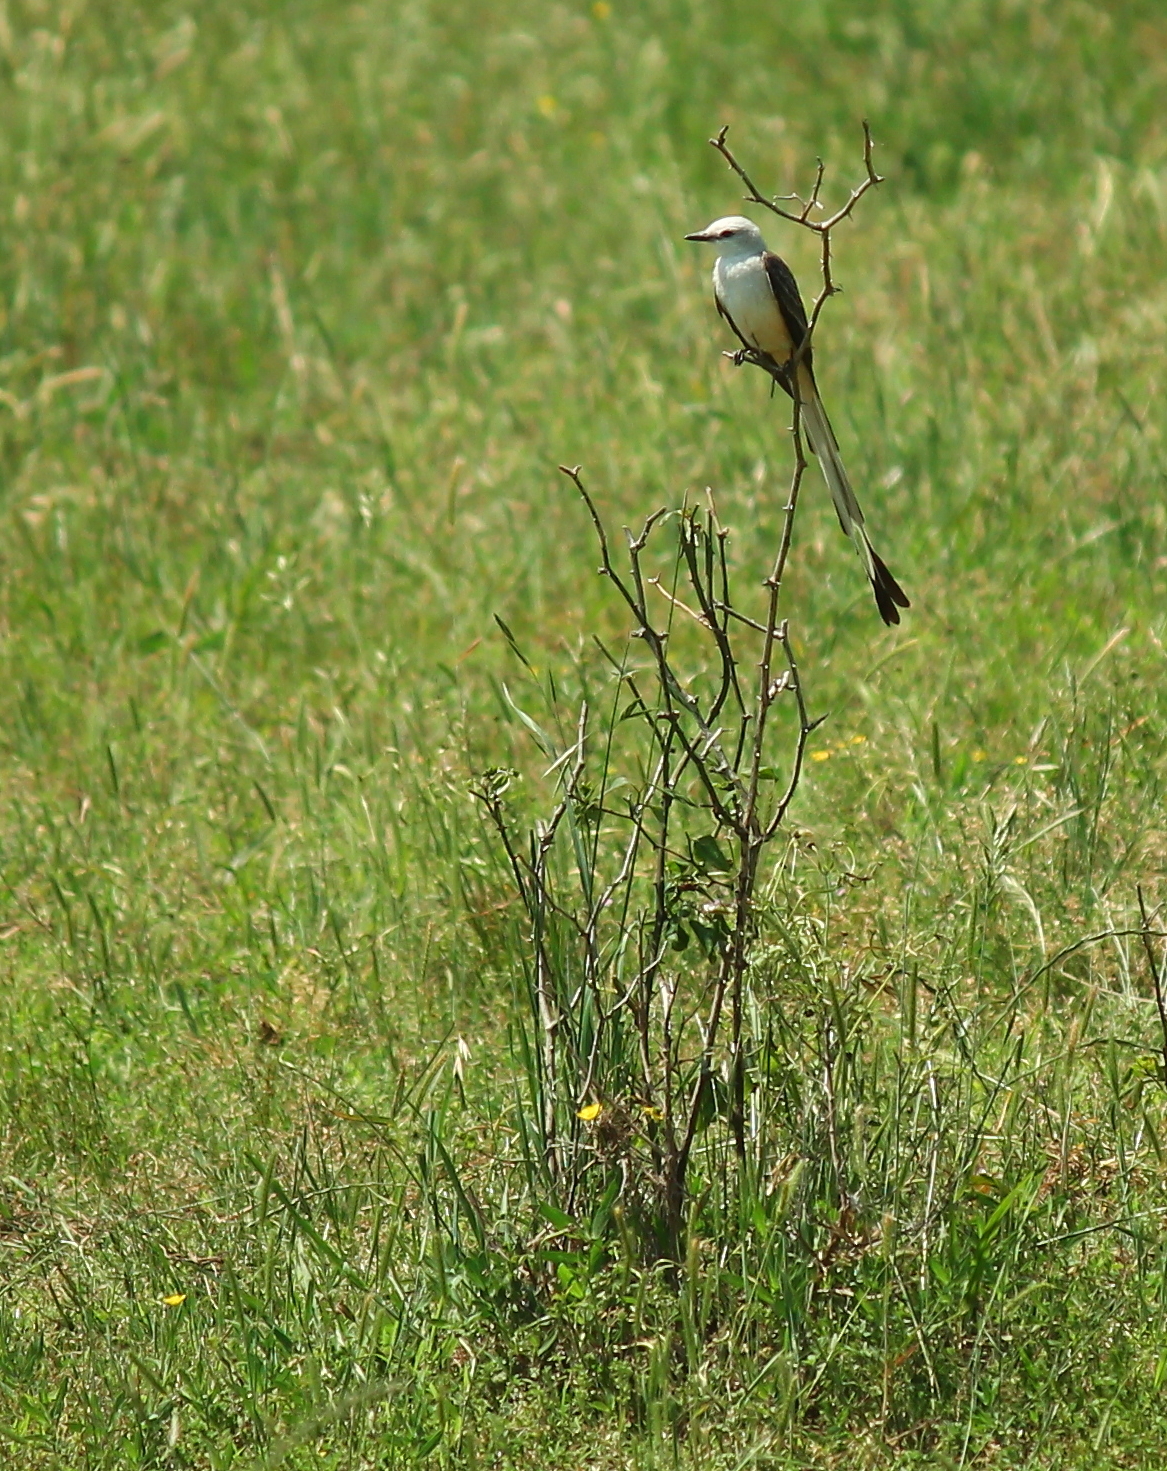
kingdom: Animalia
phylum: Chordata
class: Aves
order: Passeriformes
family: Tyrannidae
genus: Tyrannus
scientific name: Tyrannus forficatus
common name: Scissor-tailed flycatcher
